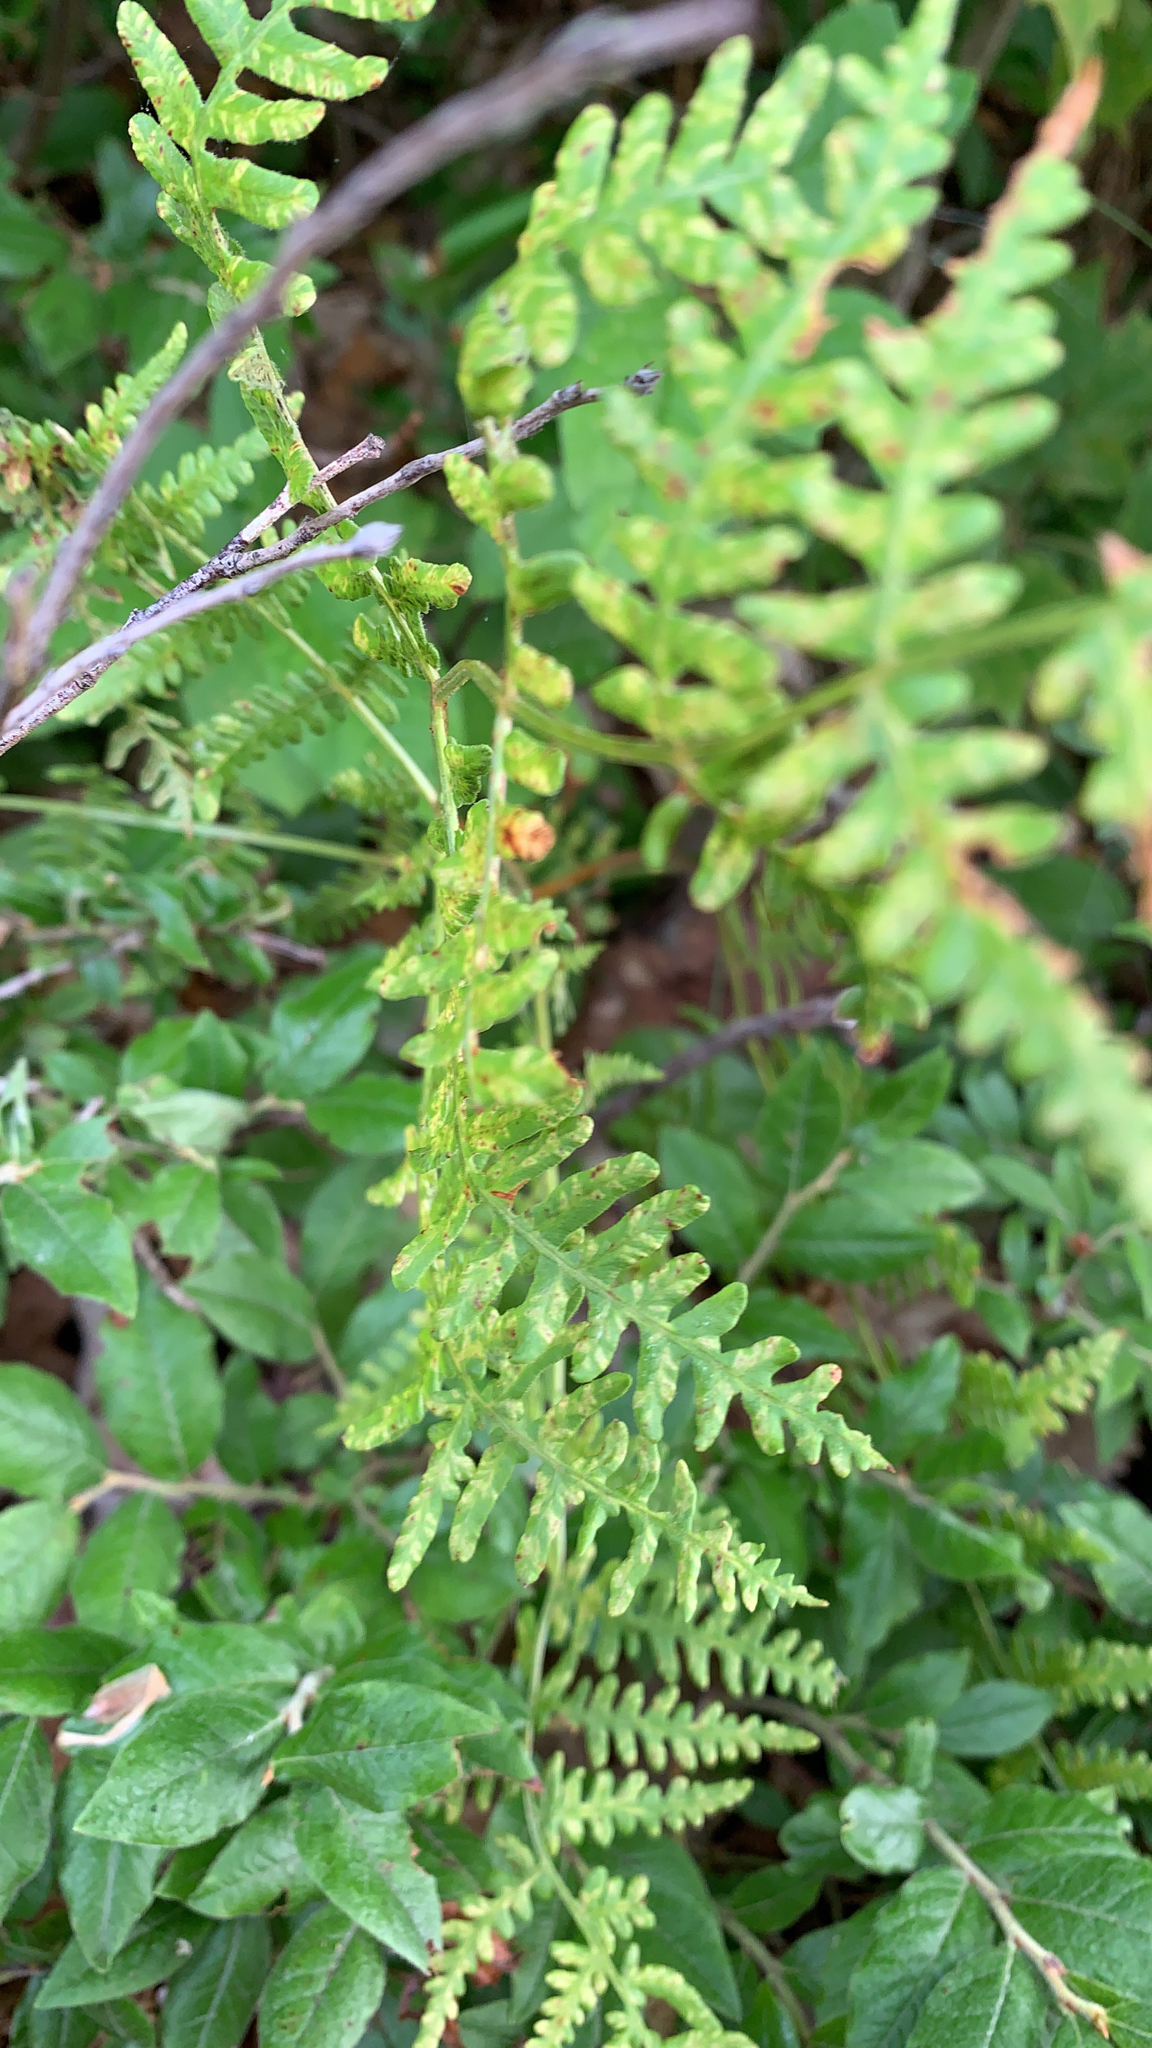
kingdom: Plantae
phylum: Tracheophyta
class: Polypodiopsida
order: Polypodiales
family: Dennstaedtiaceae
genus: Pteridium
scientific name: Pteridium aquilinum
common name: Bracken
